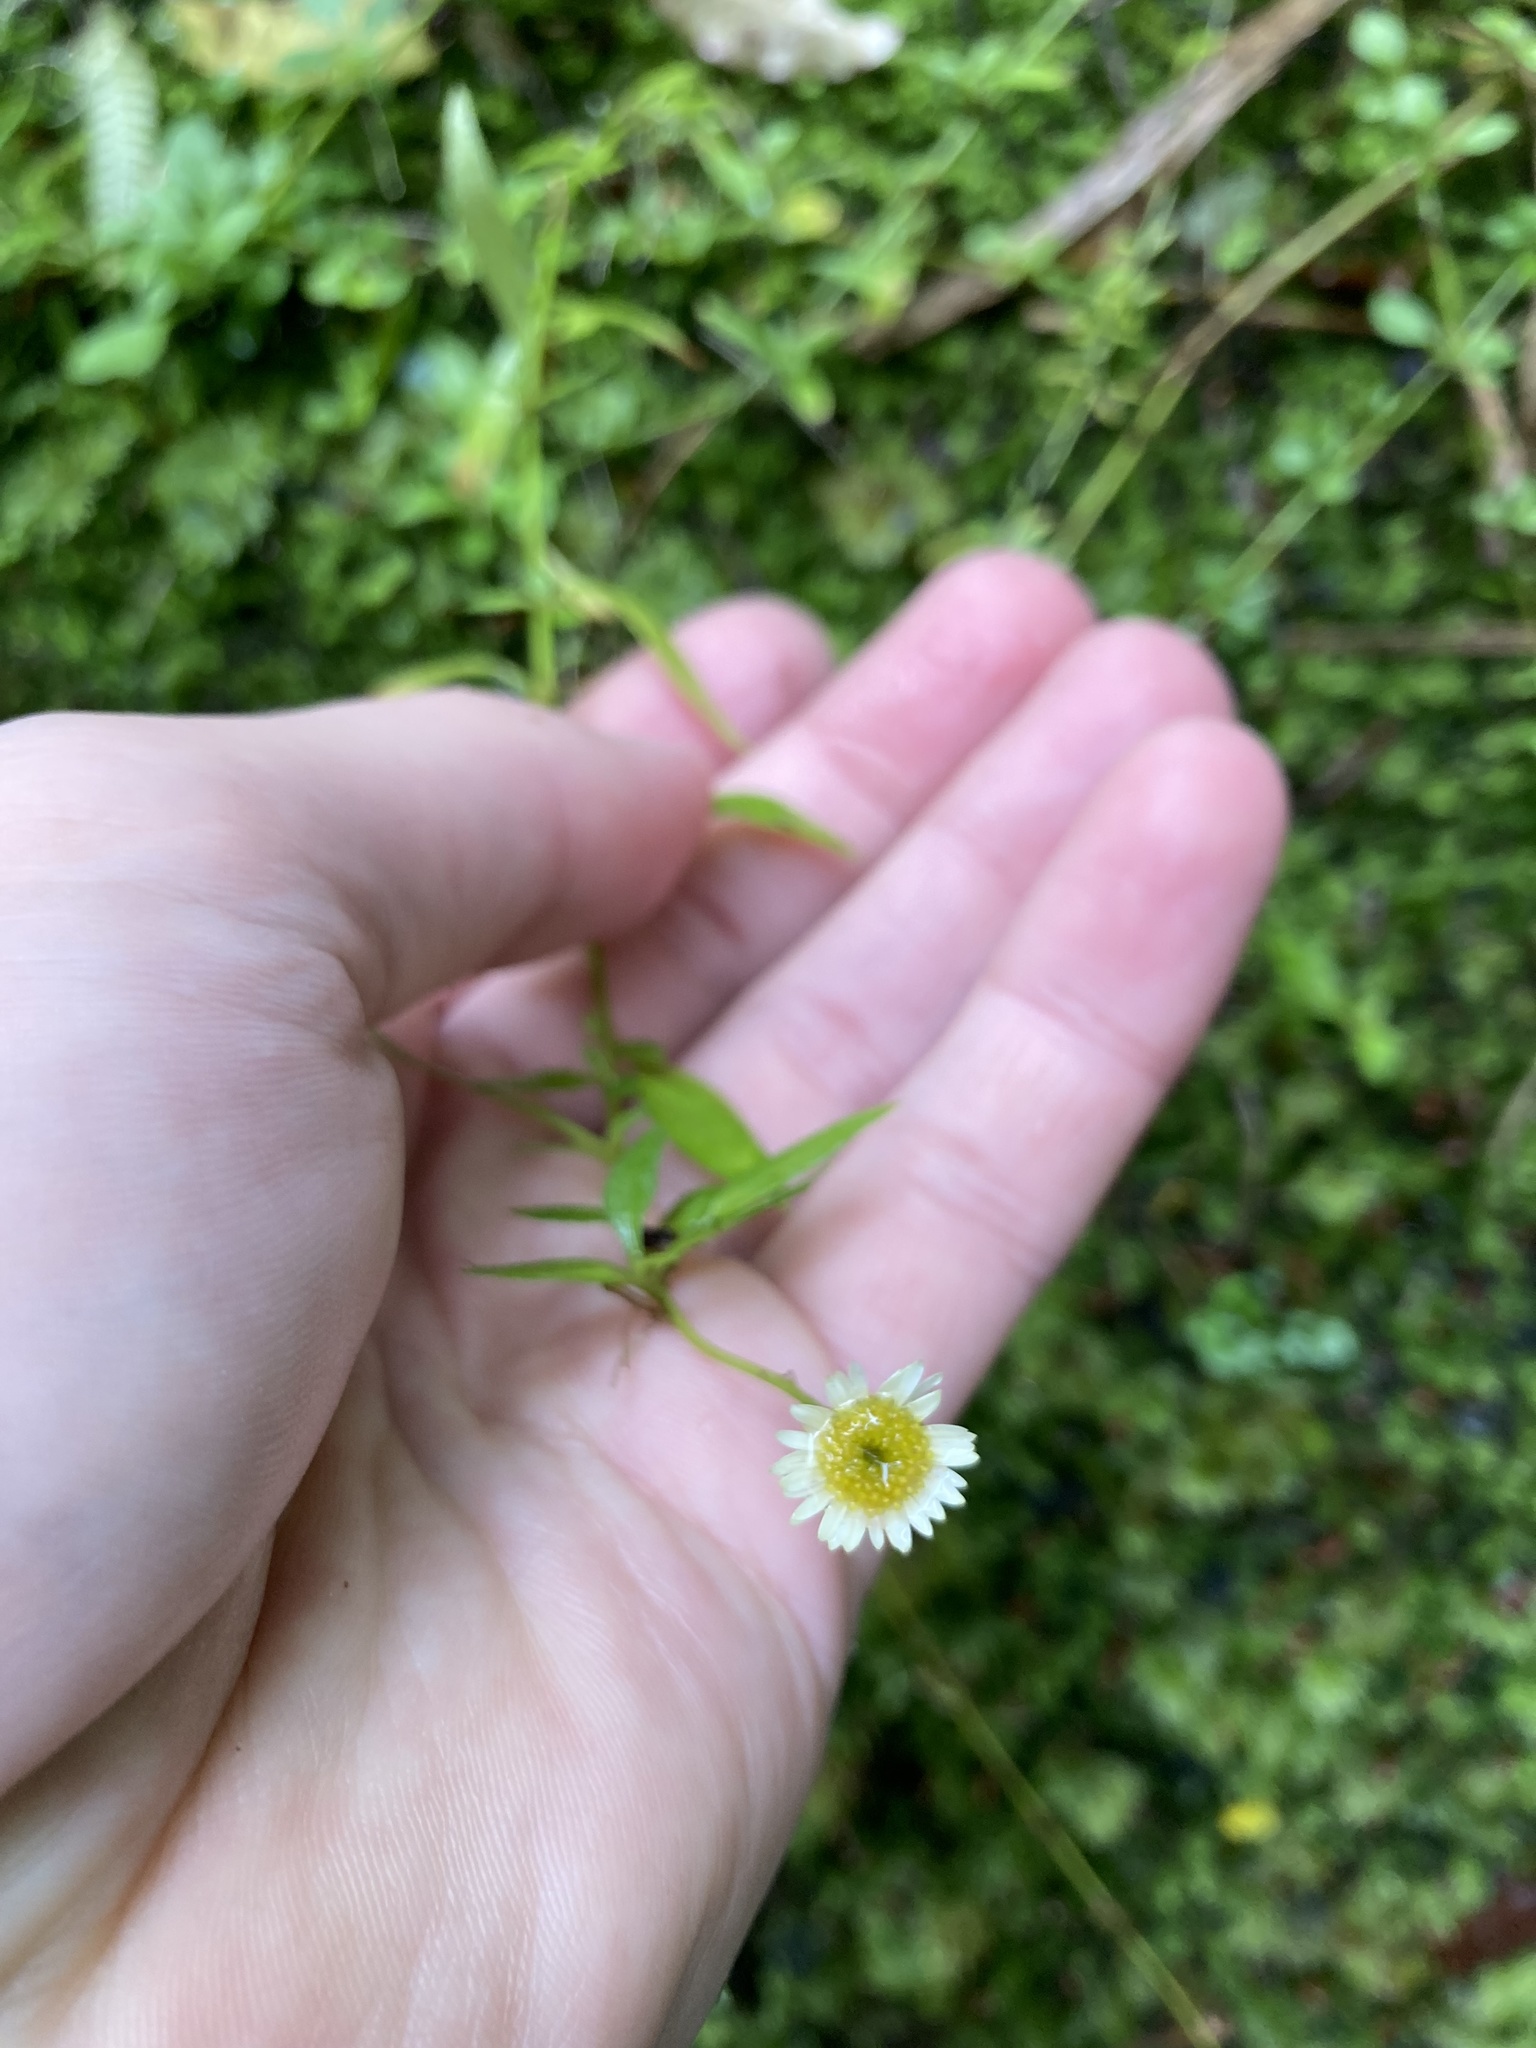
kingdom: Plantae
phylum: Tracheophyta
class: Magnoliopsida
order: Asterales
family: Asteraceae
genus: Erigeron
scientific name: Erigeron karvinskianus
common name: Mexican fleabane
